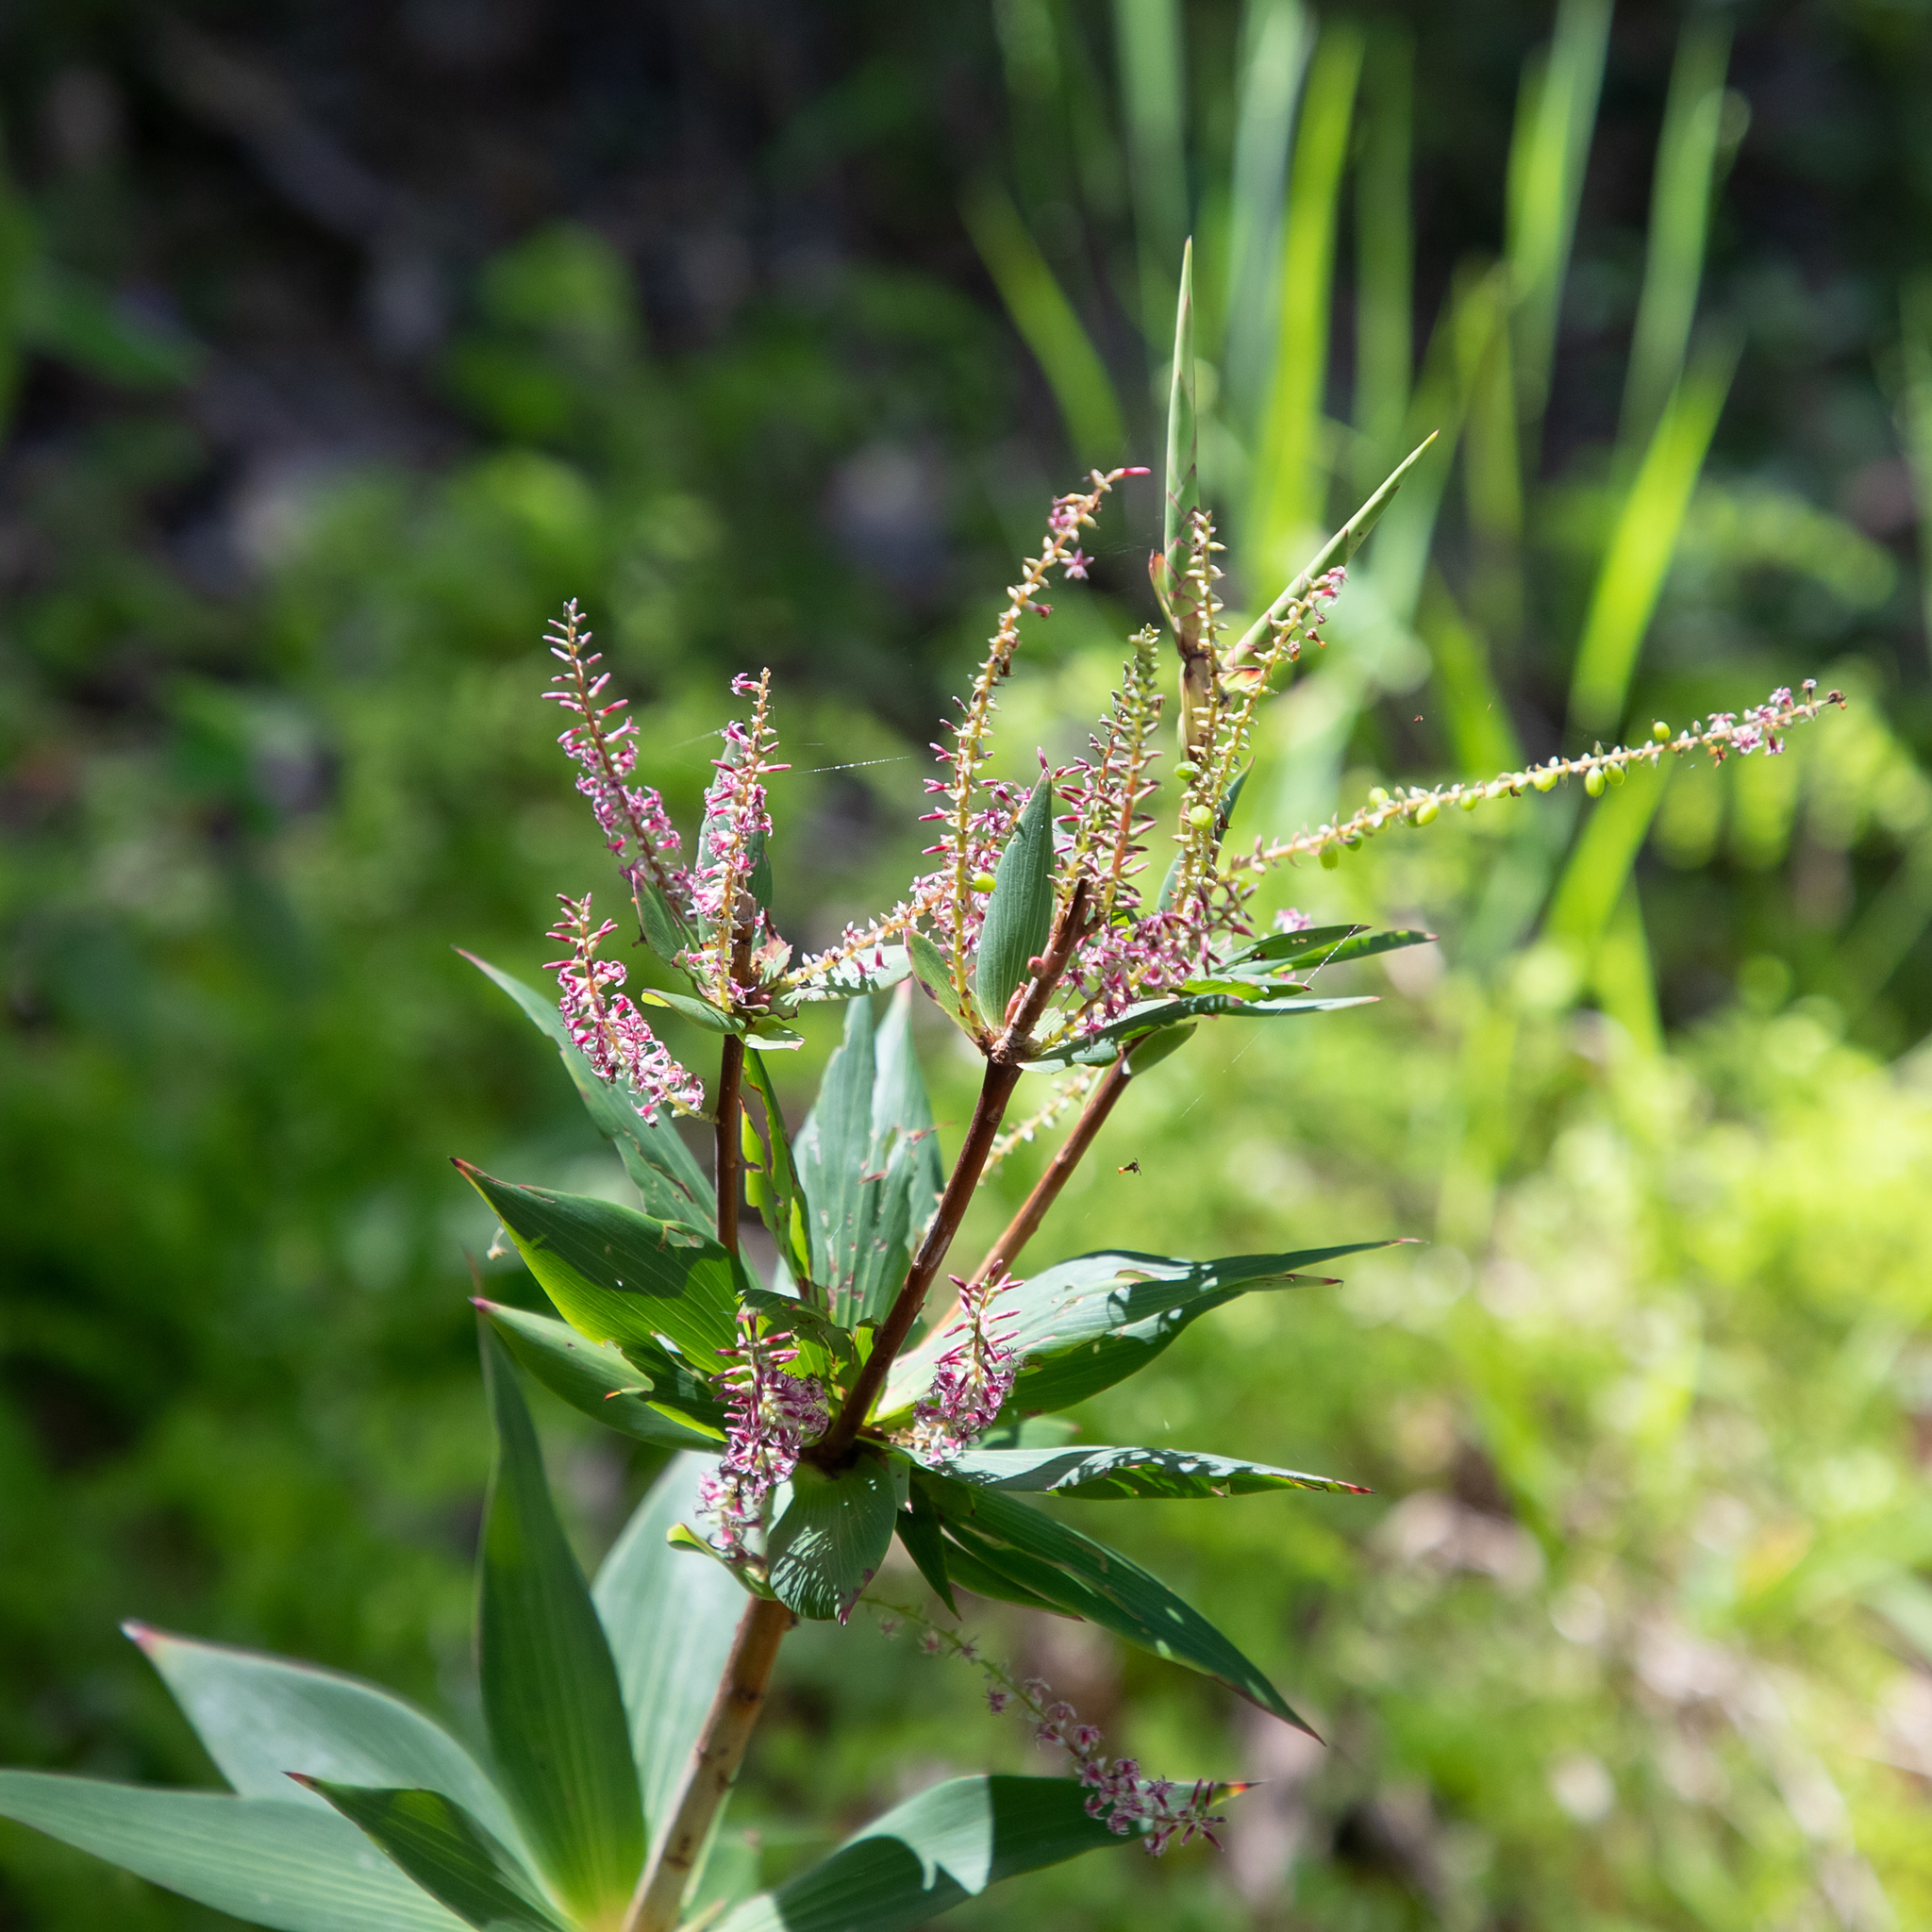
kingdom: Plantae
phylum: Tracheophyta
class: Magnoliopsida
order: Ericales
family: Ericaceae
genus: Leucopogon
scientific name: Leucopogon verticillatus
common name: Tasselshrub
